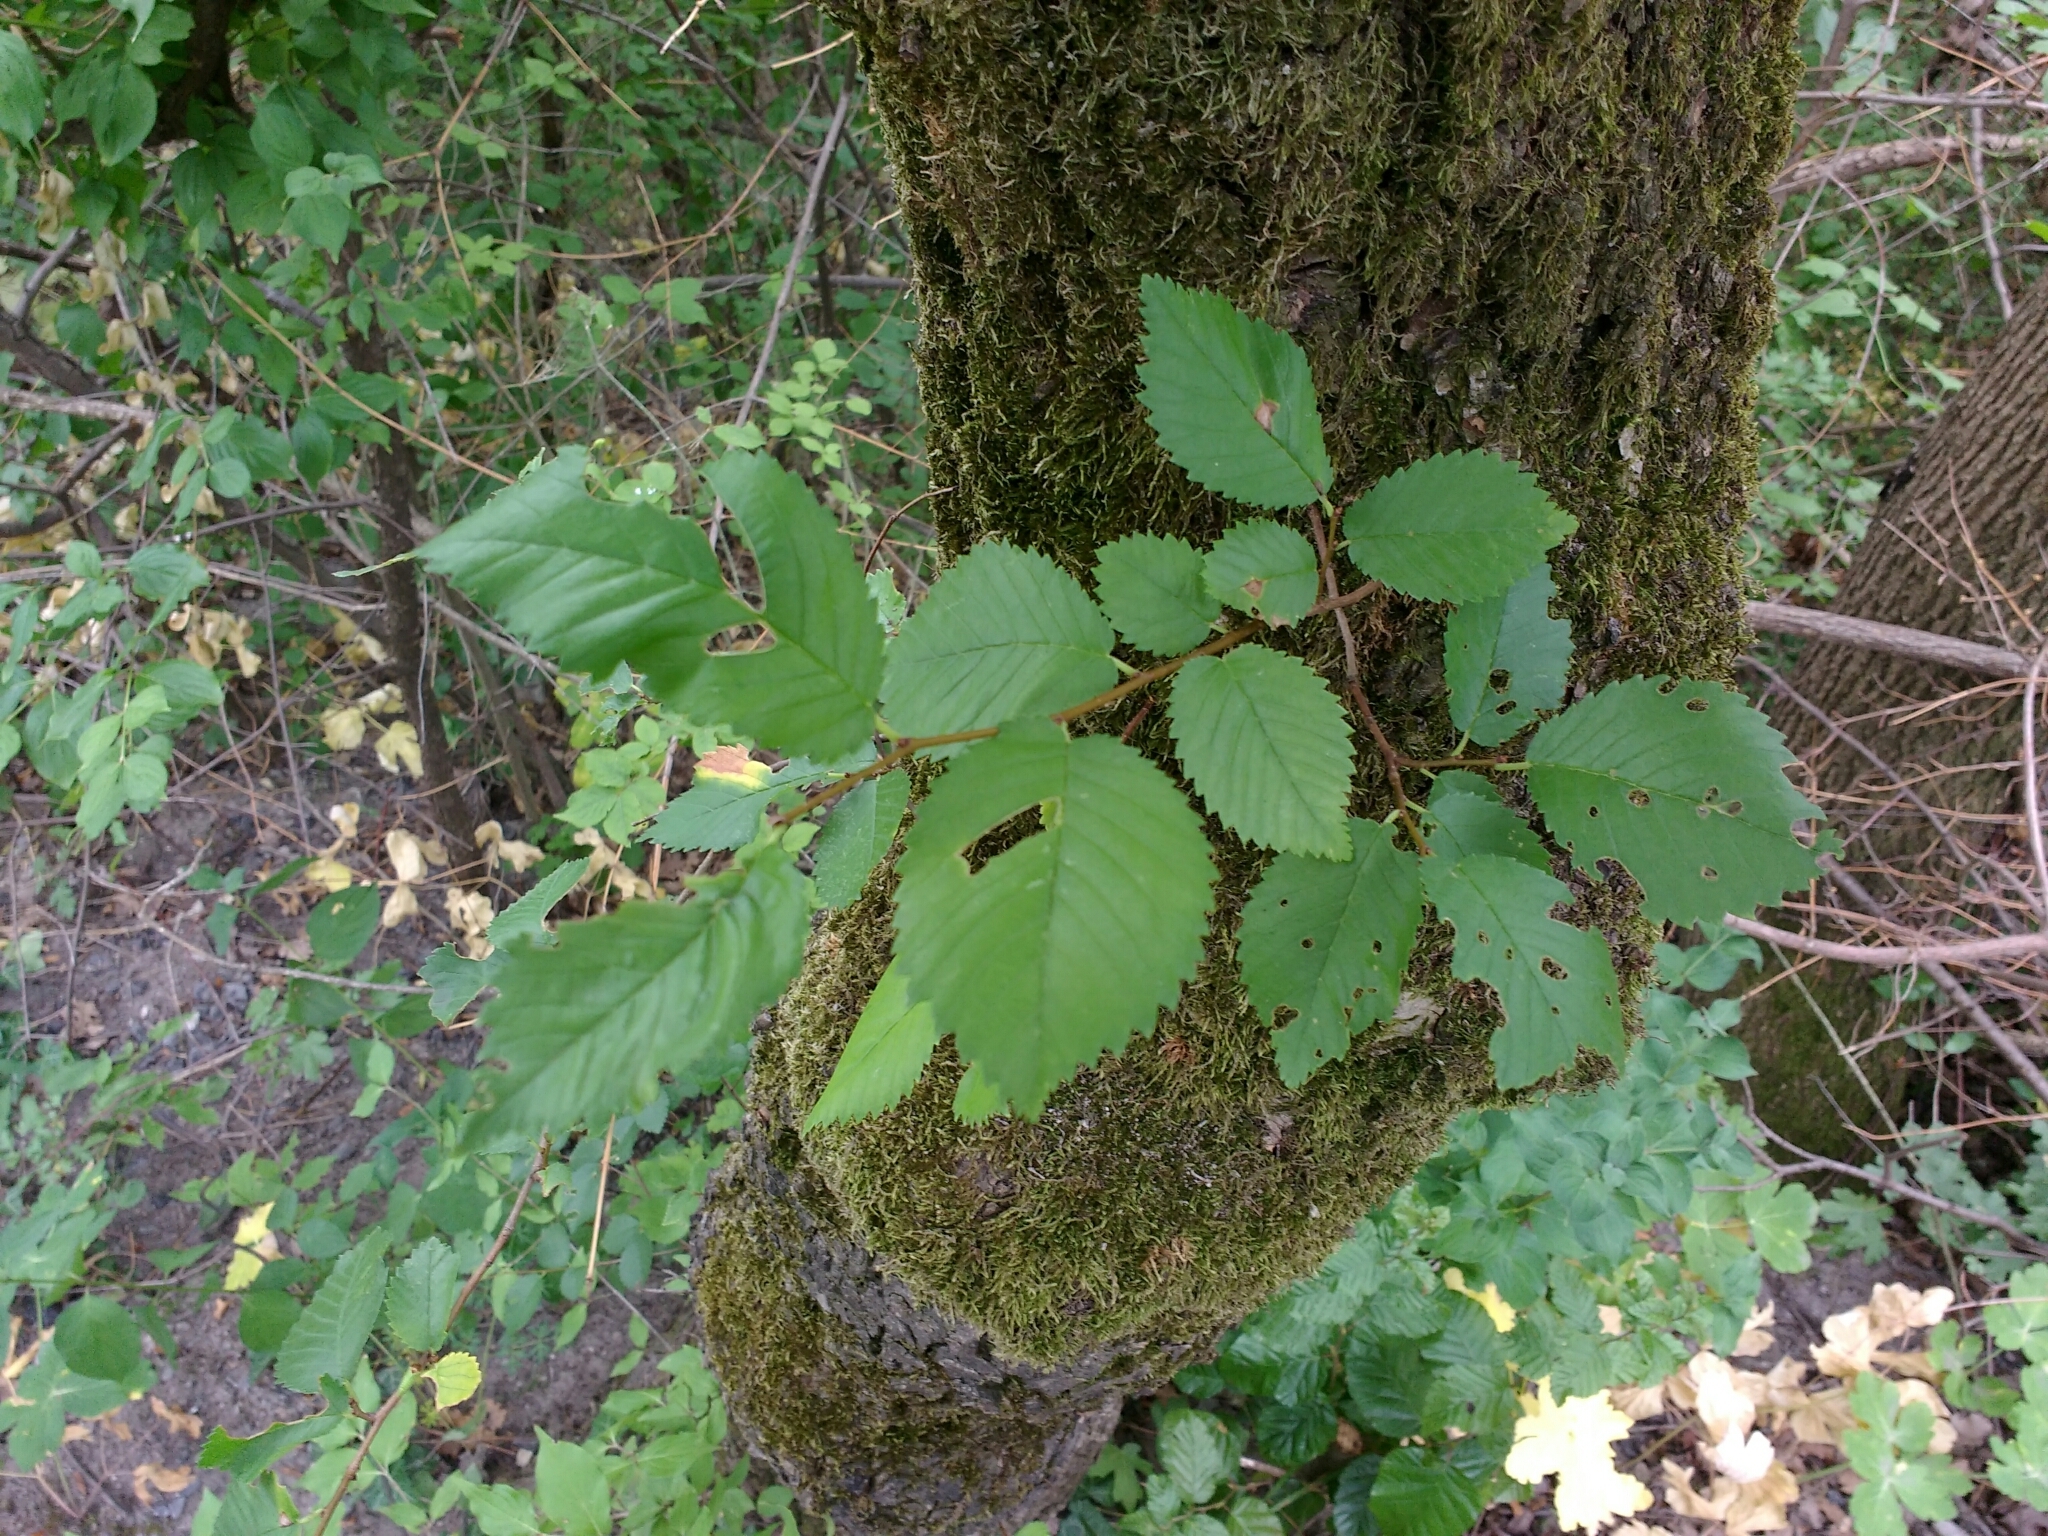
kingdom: Plantae
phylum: Tracheophyta
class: Magnoliopsida
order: Rosales
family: Ulmaceae
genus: Ulmus
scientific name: Ulmus minor
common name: Small-leaved elm
